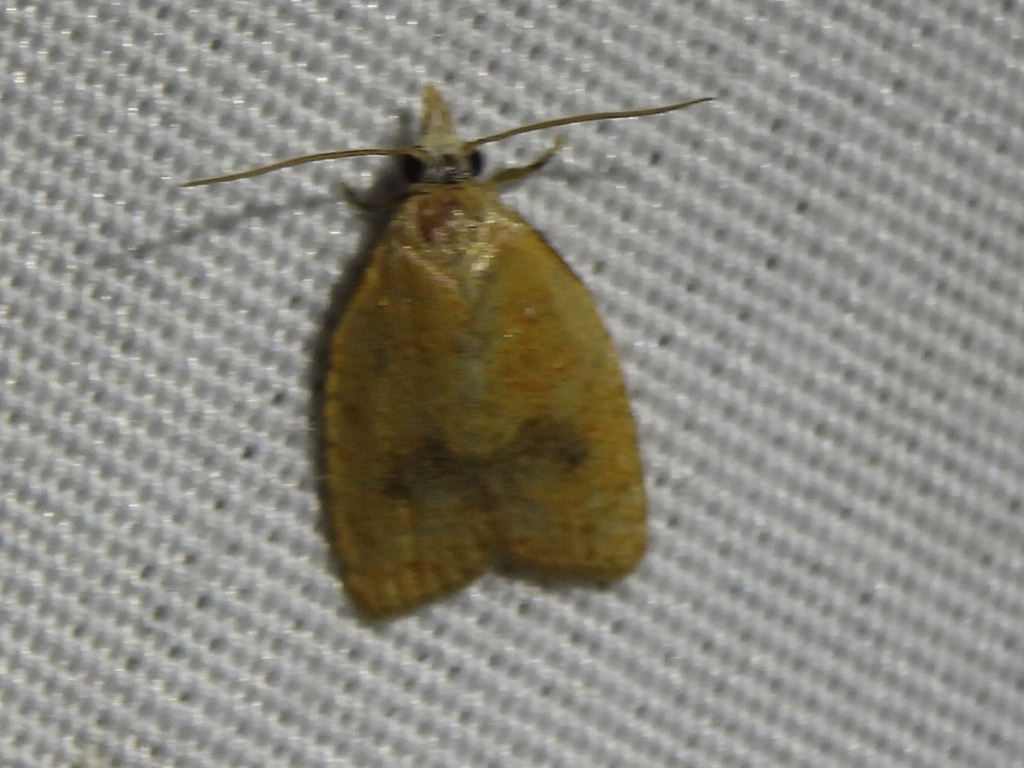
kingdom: Animalia
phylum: Arthropoda
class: Insecta
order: Lepidoptera
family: Tortricidae
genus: Sparganothoides
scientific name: Sparganothoides lentiginosana
